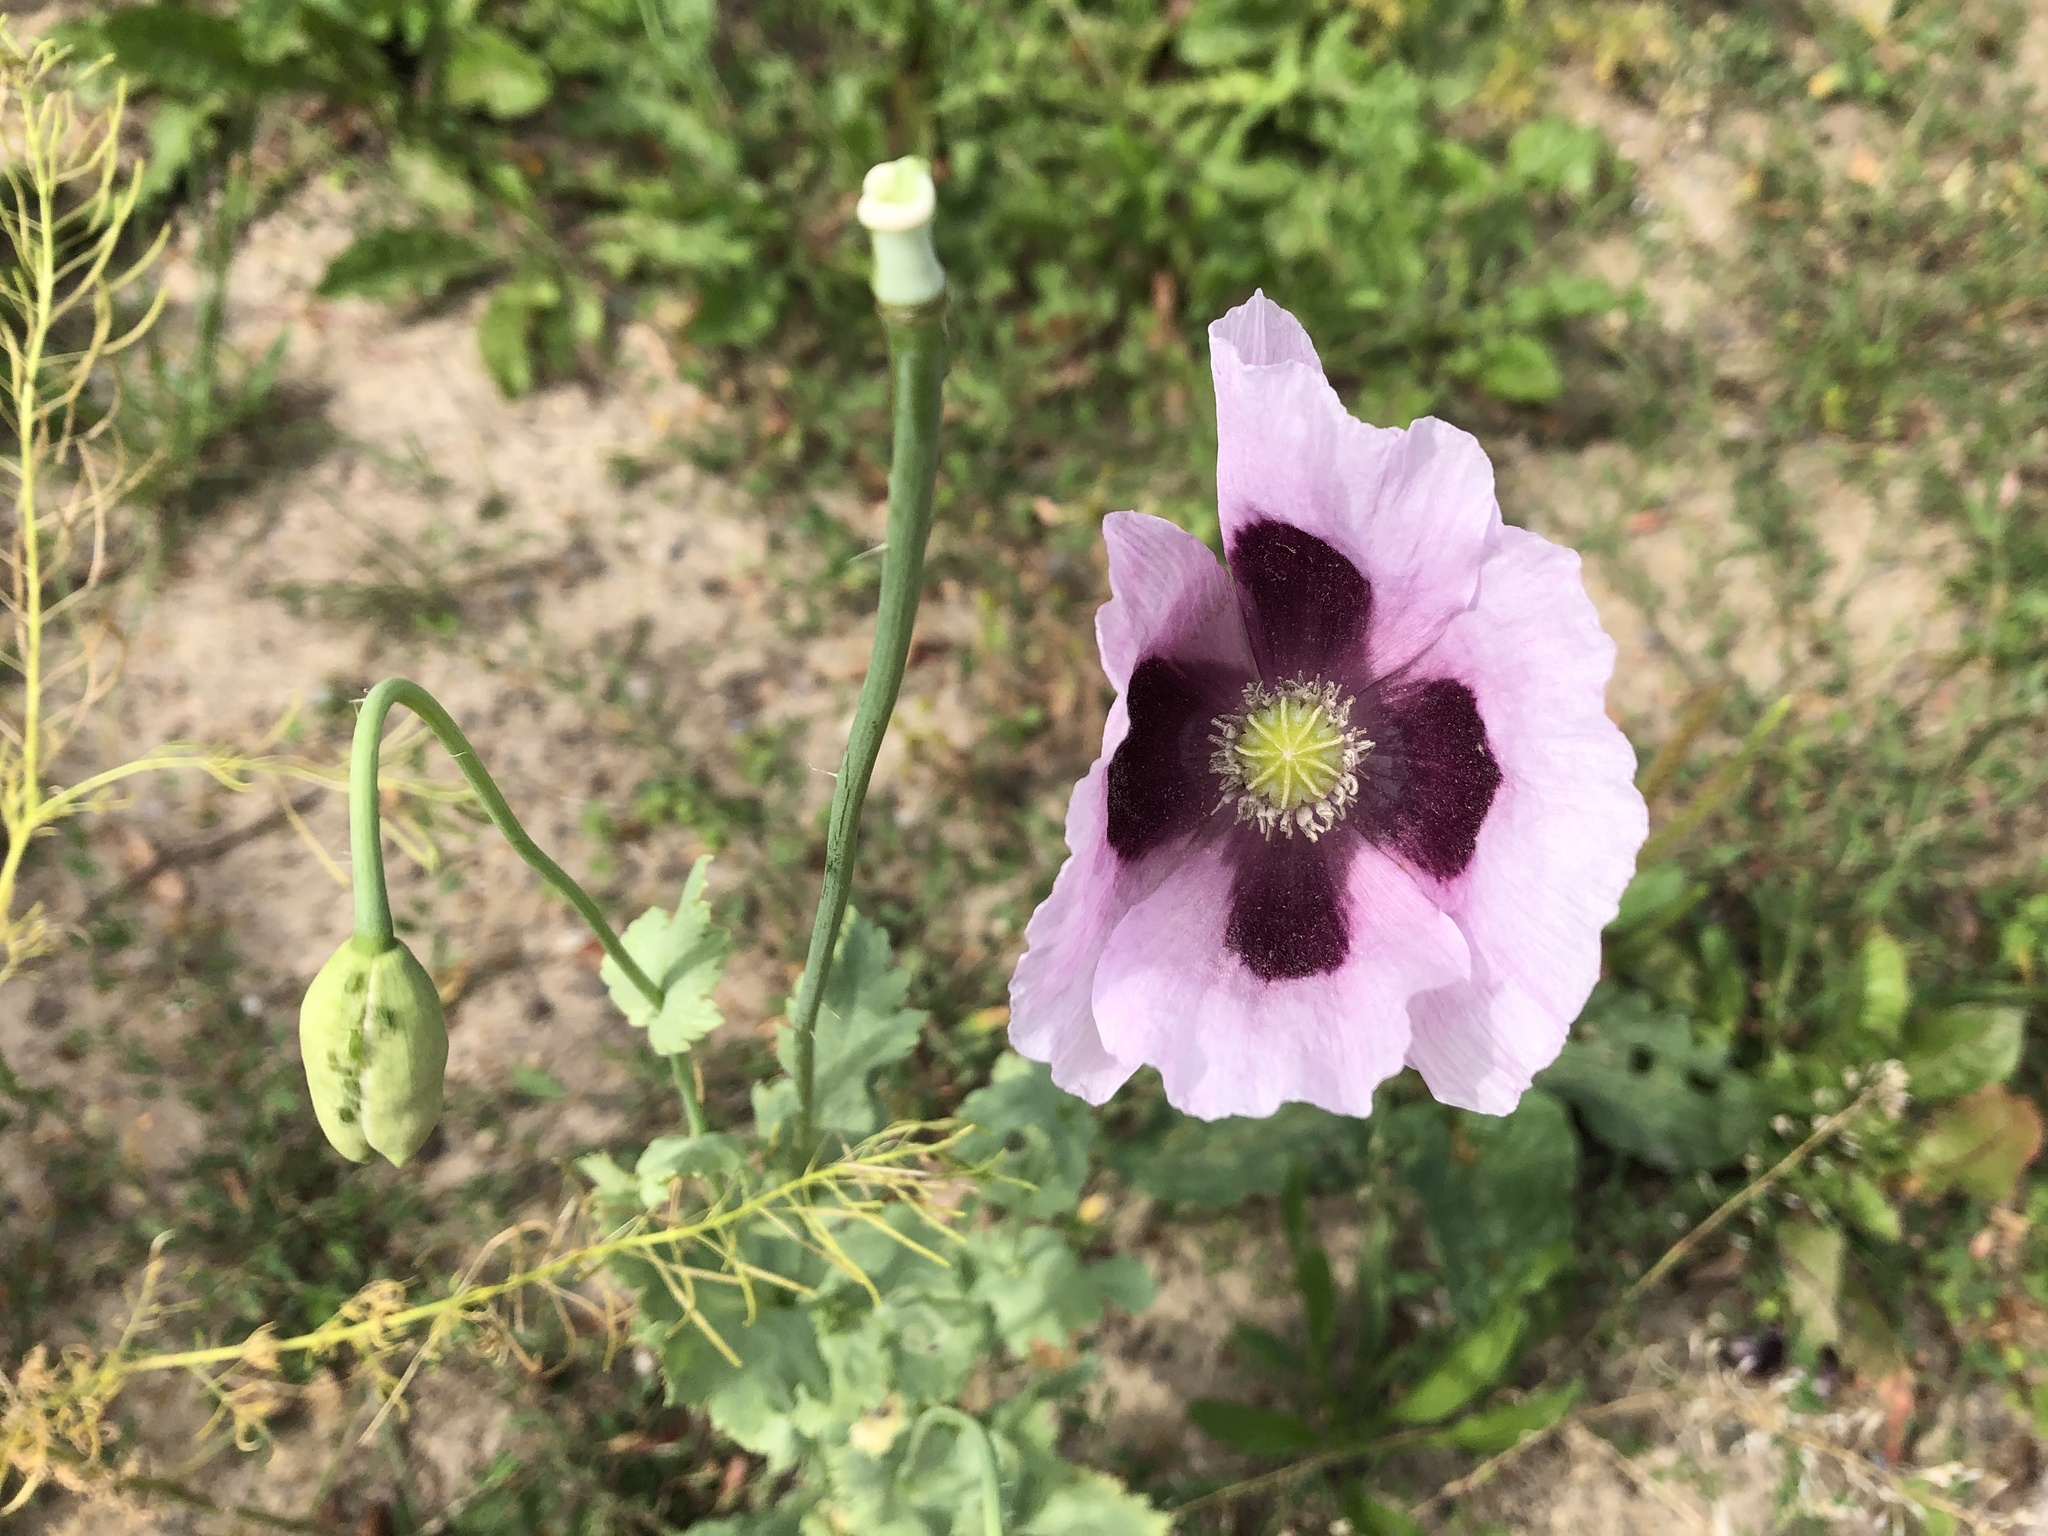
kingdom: Plantae
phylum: Tracheophyta
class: Magnoliopsida
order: Ranunculales
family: Papaveraceae
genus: Papaver
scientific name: Papaver somniferum
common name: Opium poppy
